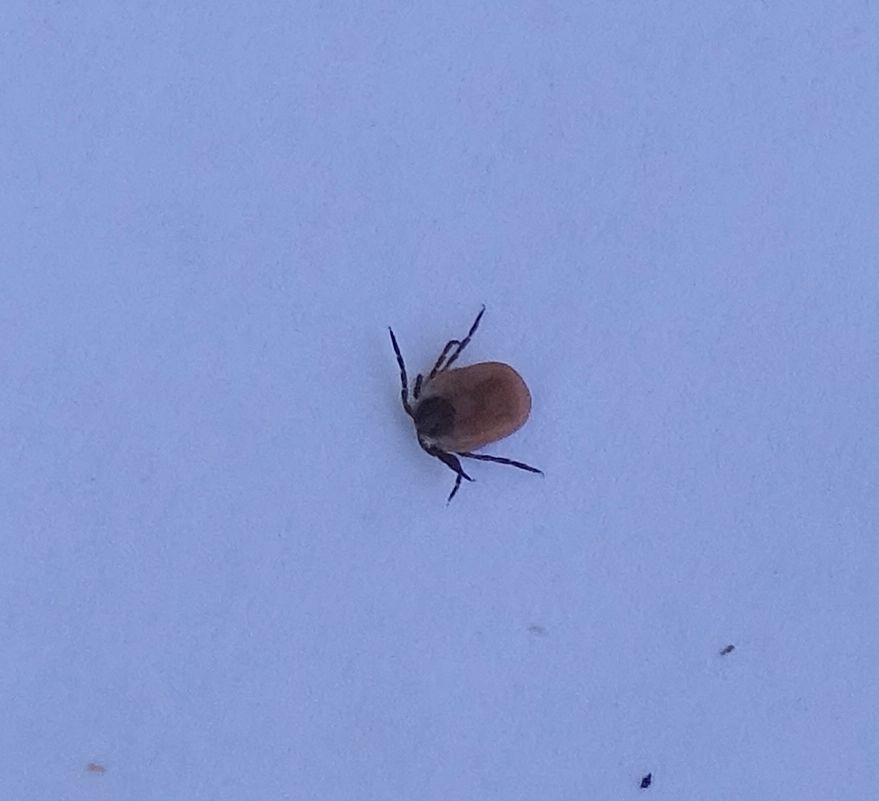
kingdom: Animalia
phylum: Arthropoda
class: Arachnida
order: Ixodida
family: Ixodidae
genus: Ixodes
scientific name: Ixodes scapularis
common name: Black legged tick
